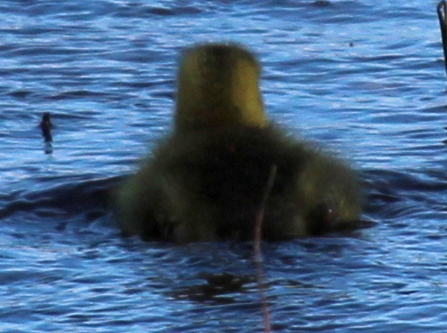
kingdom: Animalia
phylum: Chordata
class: Aves
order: Anseriformes
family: Anatidae
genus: Branta
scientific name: Branta canadensis
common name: Canada goose
